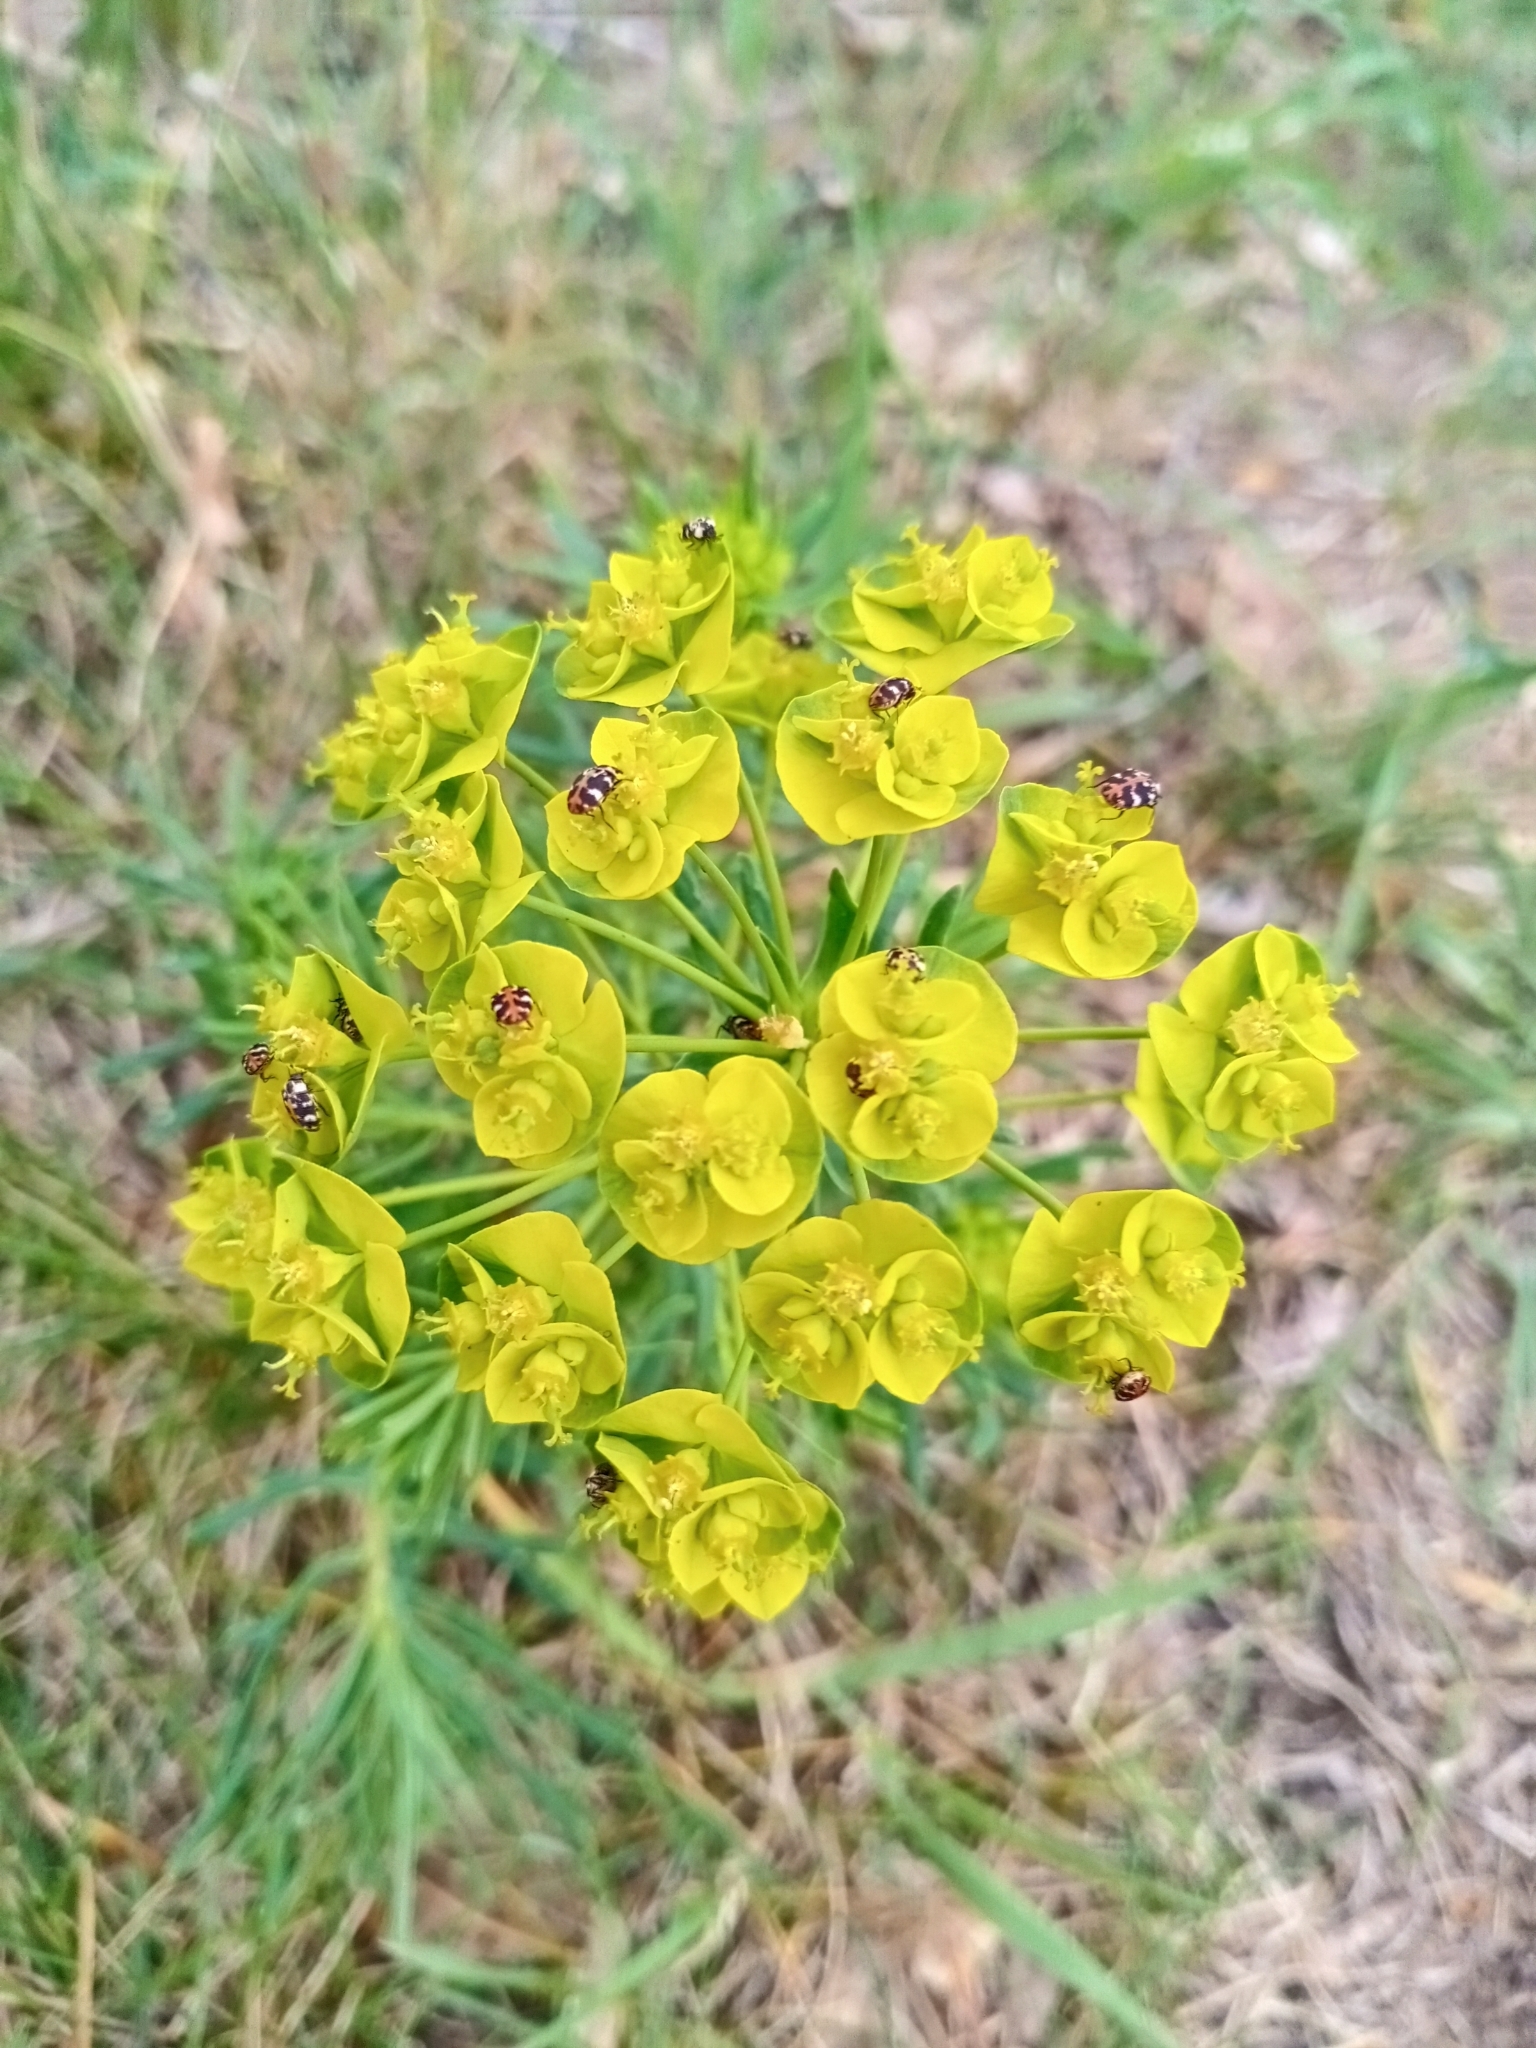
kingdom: Plantae
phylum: Tracheophyta
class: Magnoliopsida
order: Malpighiales
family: Euphorbiaceae
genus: Euphorbia
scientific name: Euphorbia cyparissias
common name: Cypress spurge
